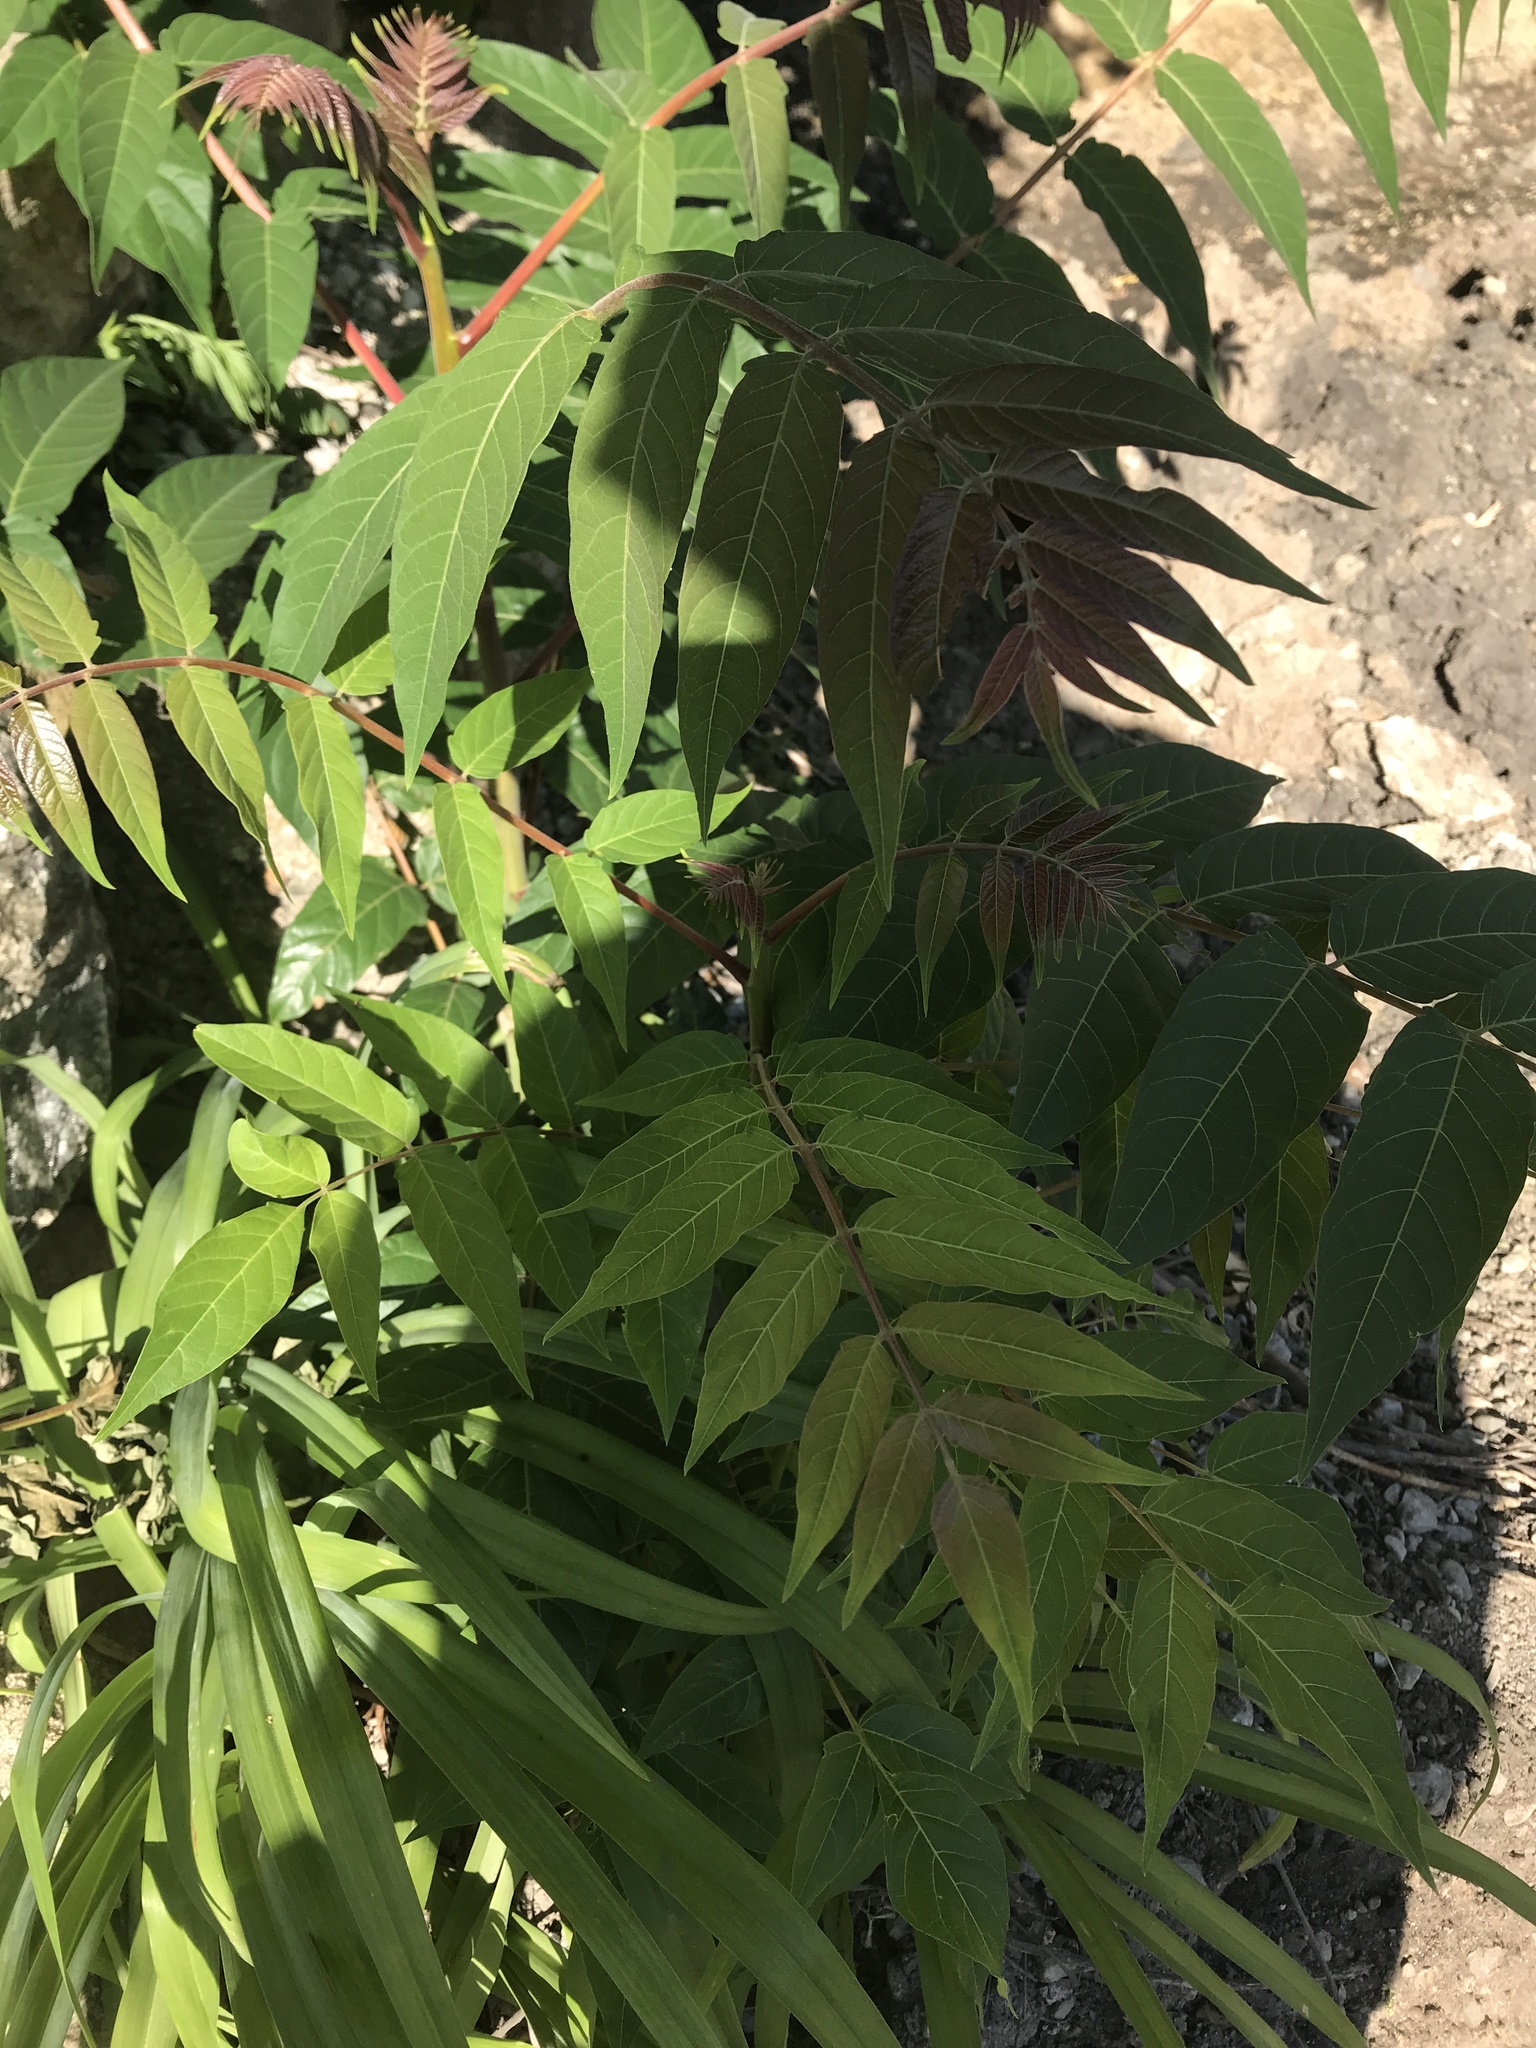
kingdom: Plantae
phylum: Tracheophyta
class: Magnoliopsida
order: Sapindales
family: Simaroubaceae
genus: Ailanthus
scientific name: Ailanthus altissima
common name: Tree-of-heaven
